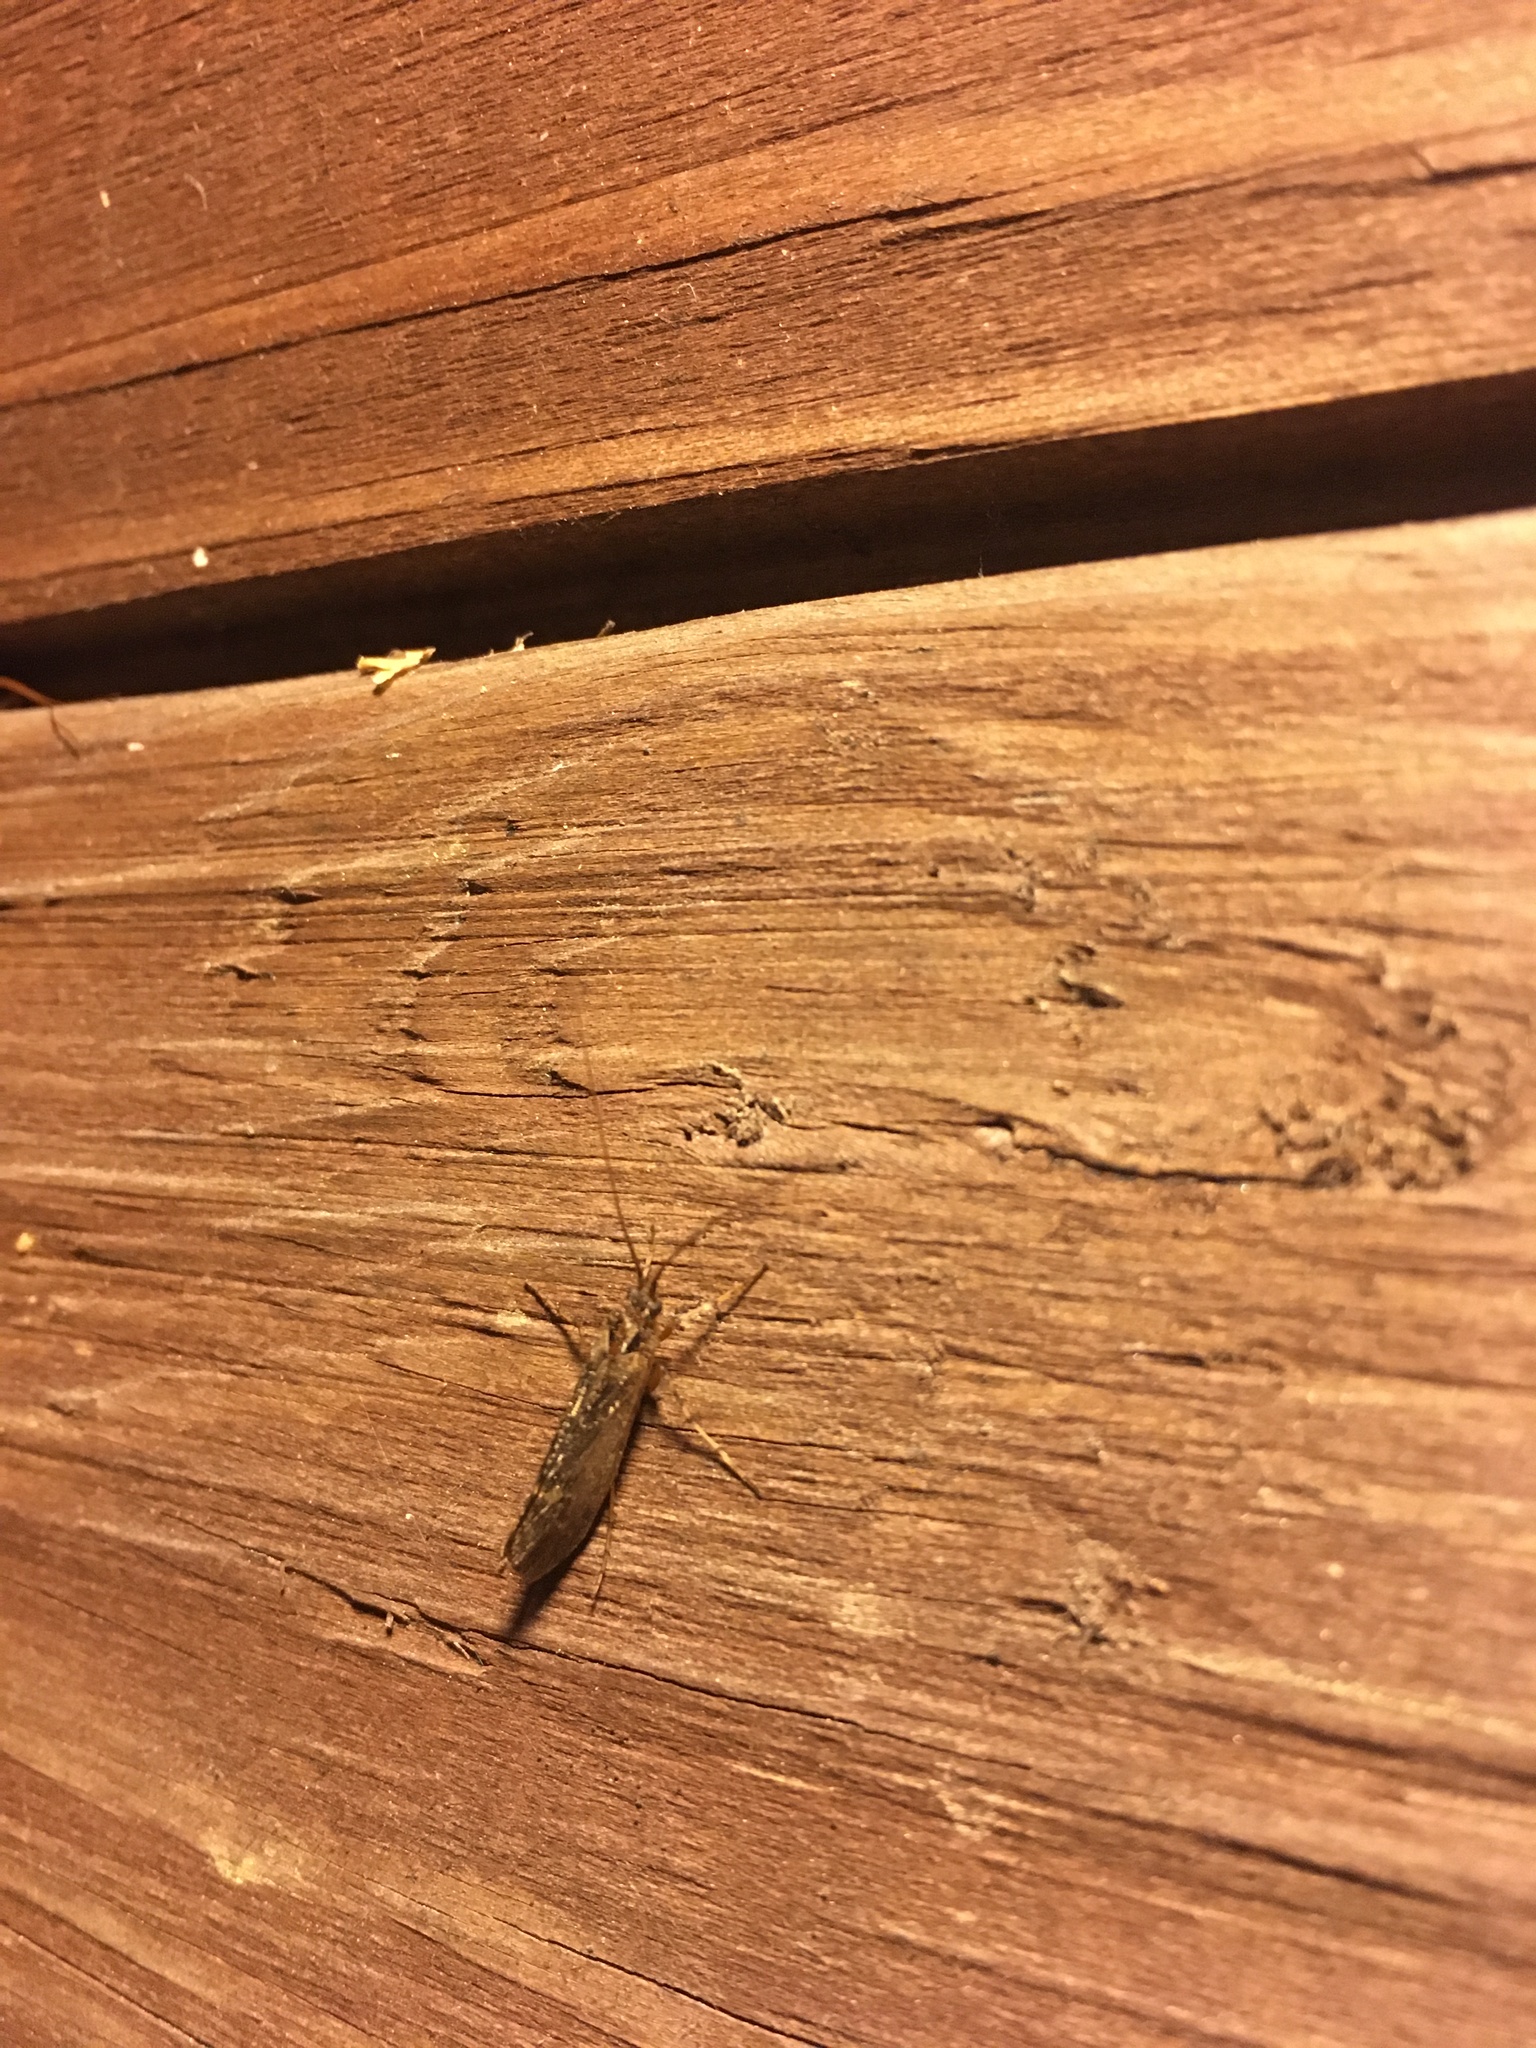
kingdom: Animalia
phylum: Arthropoda
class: Insecta
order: Trichoptera
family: Limnephilidae
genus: Limnephilus
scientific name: Limnephilus sparsus
